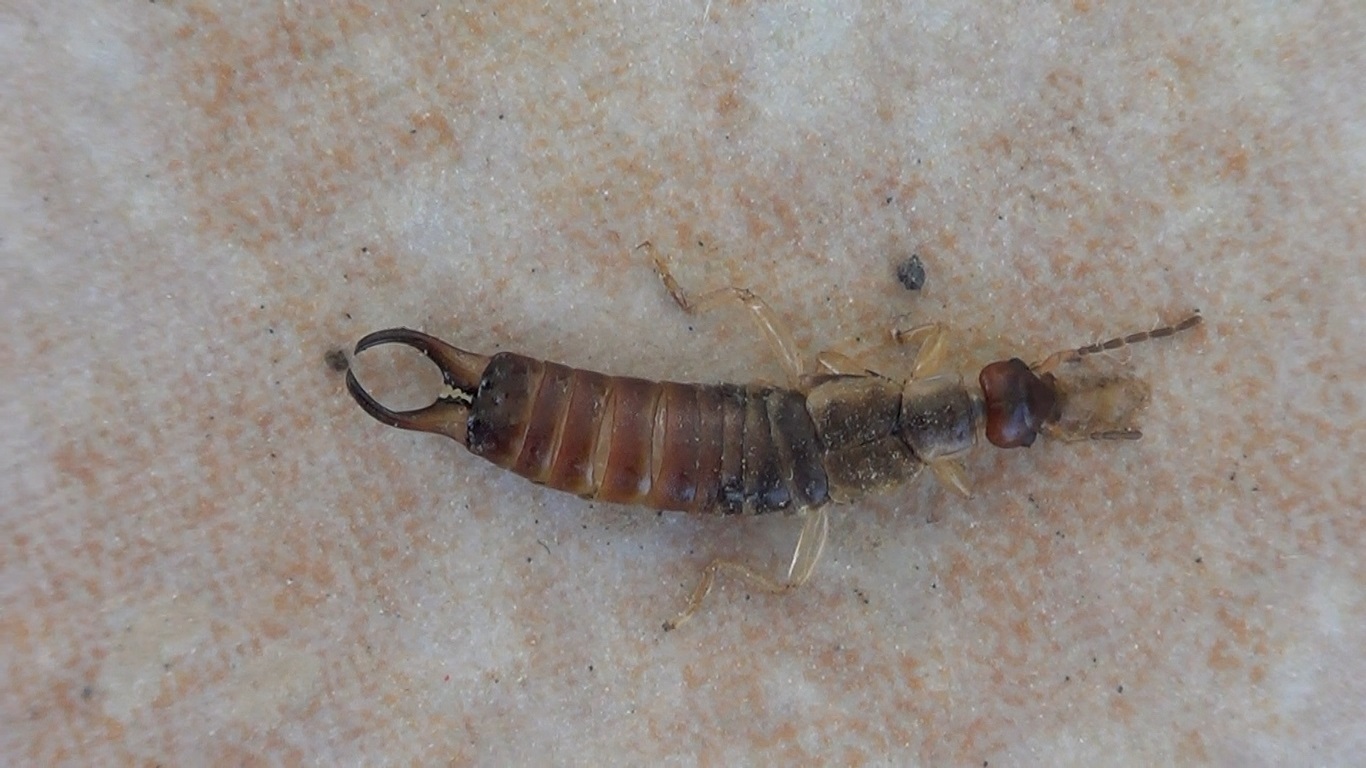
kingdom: Animalia
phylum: Arthropoda
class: Insecta
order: Dermaptera
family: Forficulidae
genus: Forficula
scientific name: Forficula decipiens
